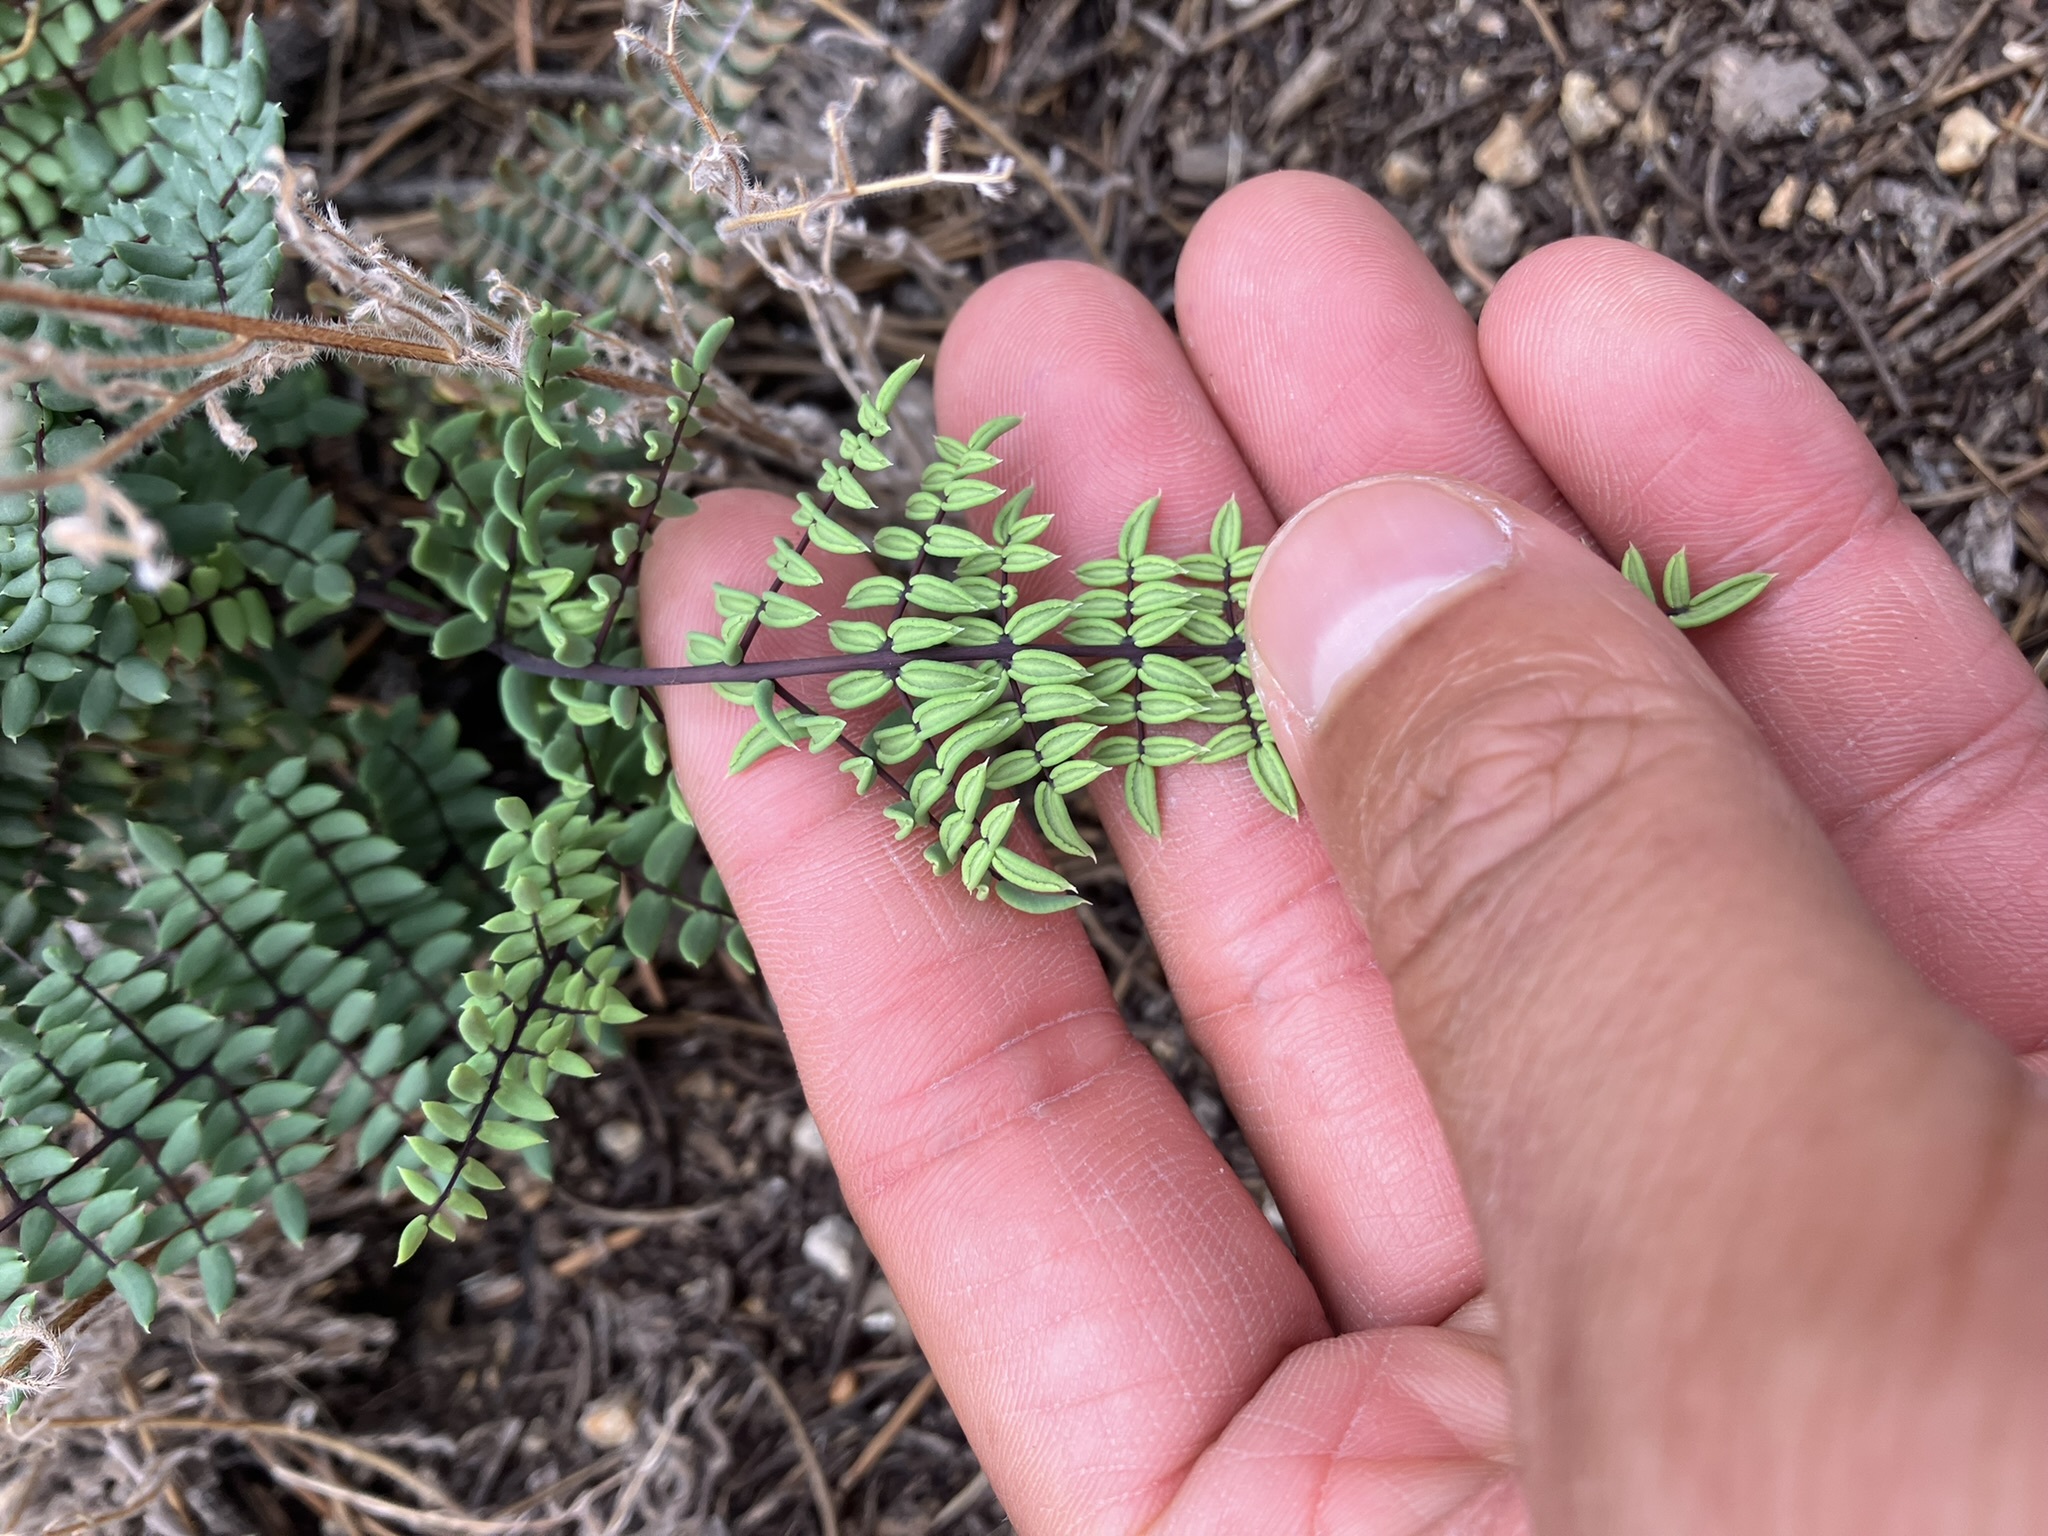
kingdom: Plantae
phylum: Tracheophyta
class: Polypodiopsida
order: Polypodiales
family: Pteridaceae
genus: Pellaea
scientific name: Pellaea truncata
